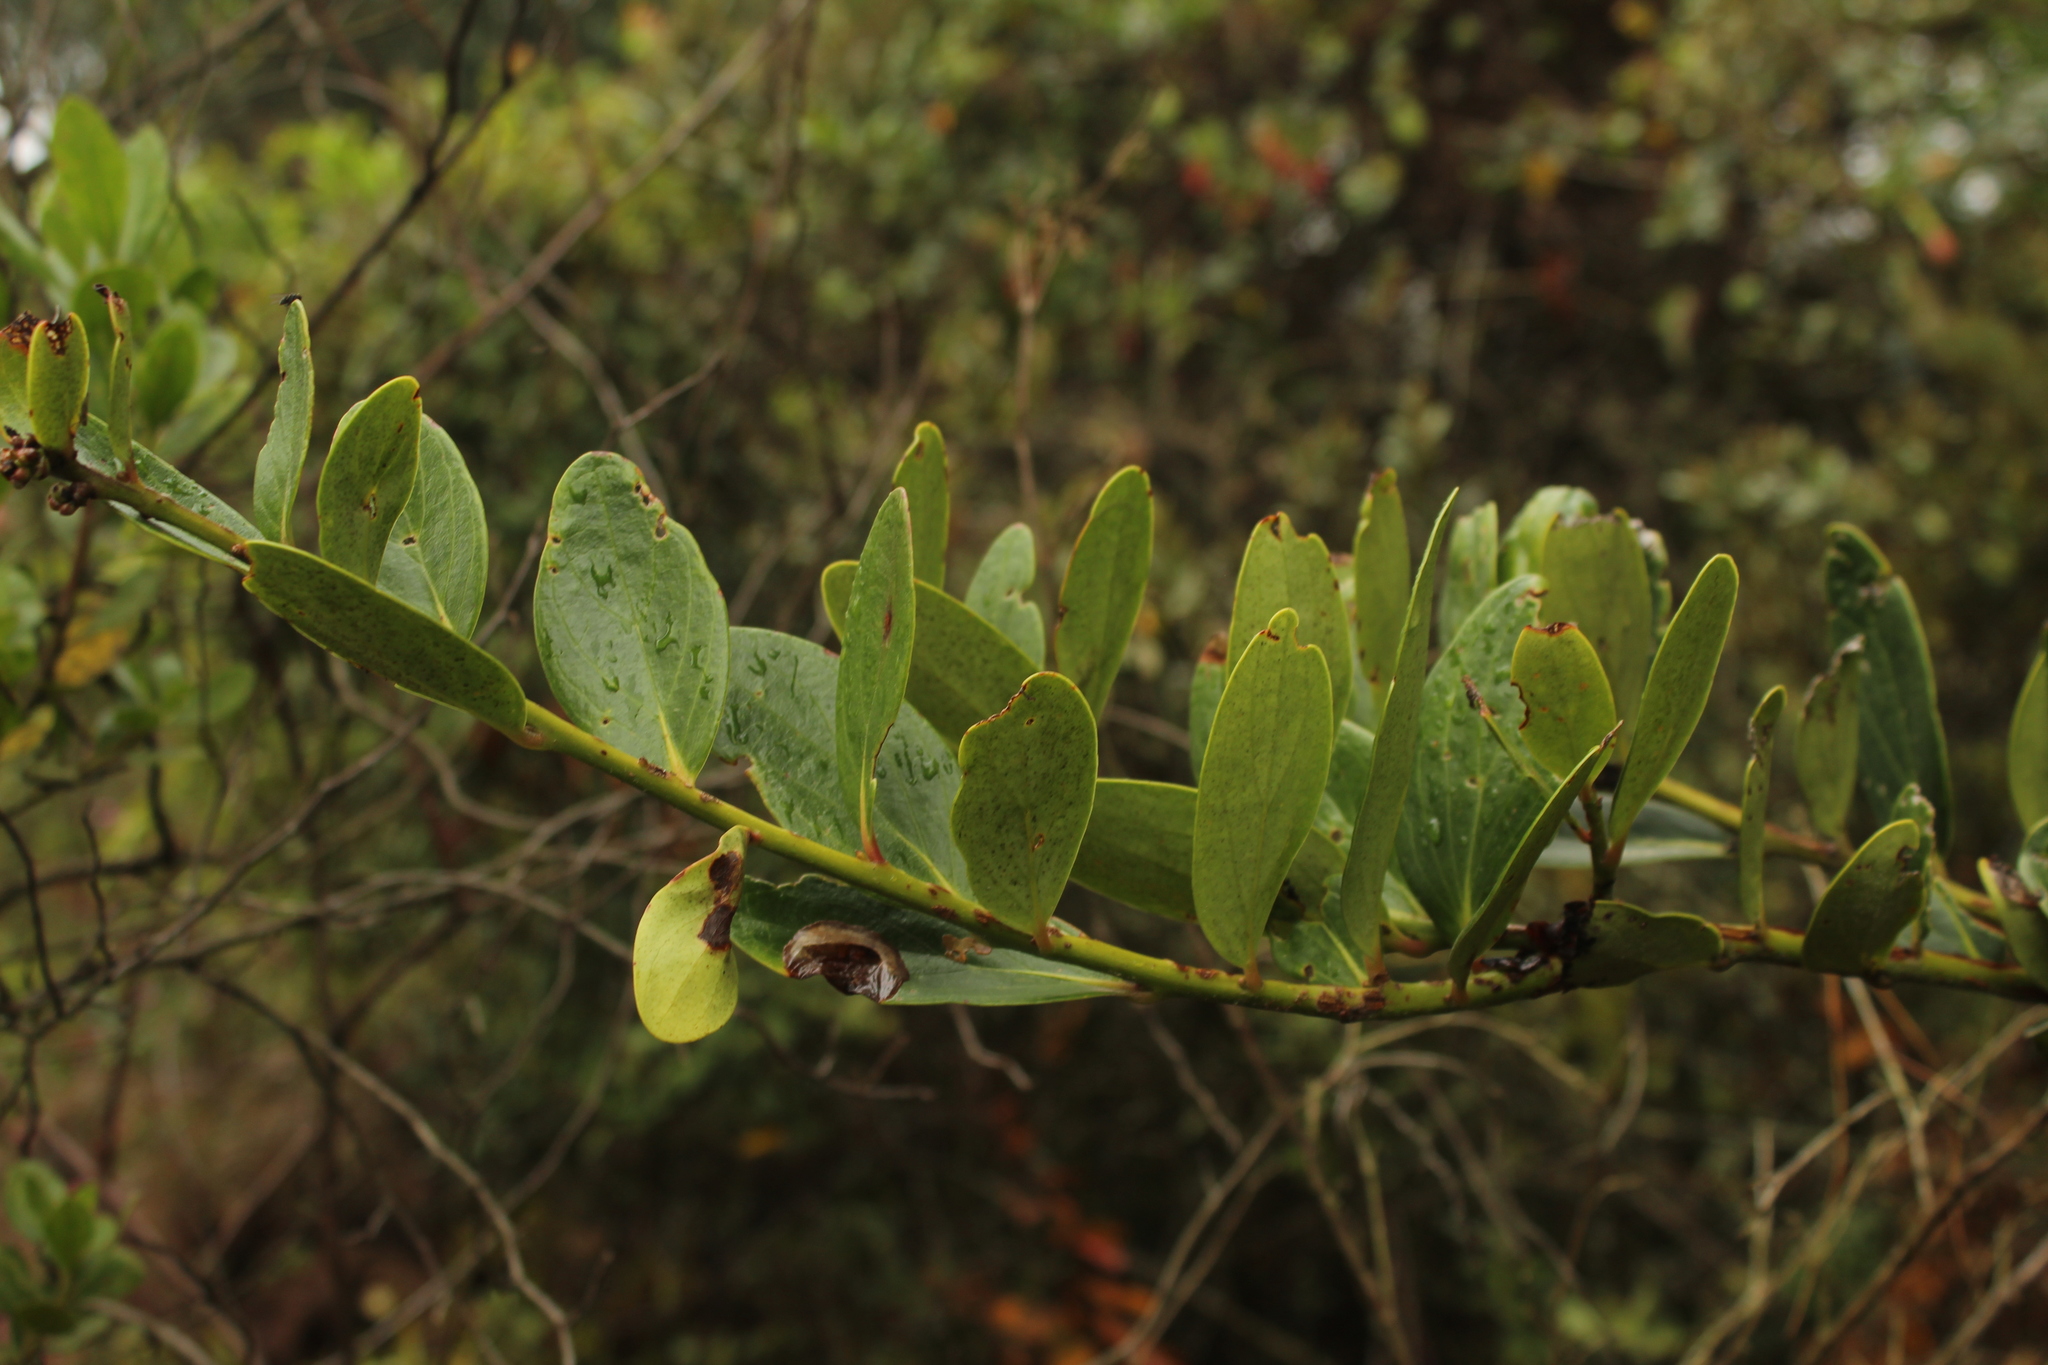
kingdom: Plantae
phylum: Tracheophyta
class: Magnoliopsida
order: Ericales
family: Ericaceae
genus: Macleania
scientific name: Macleania rupestris
